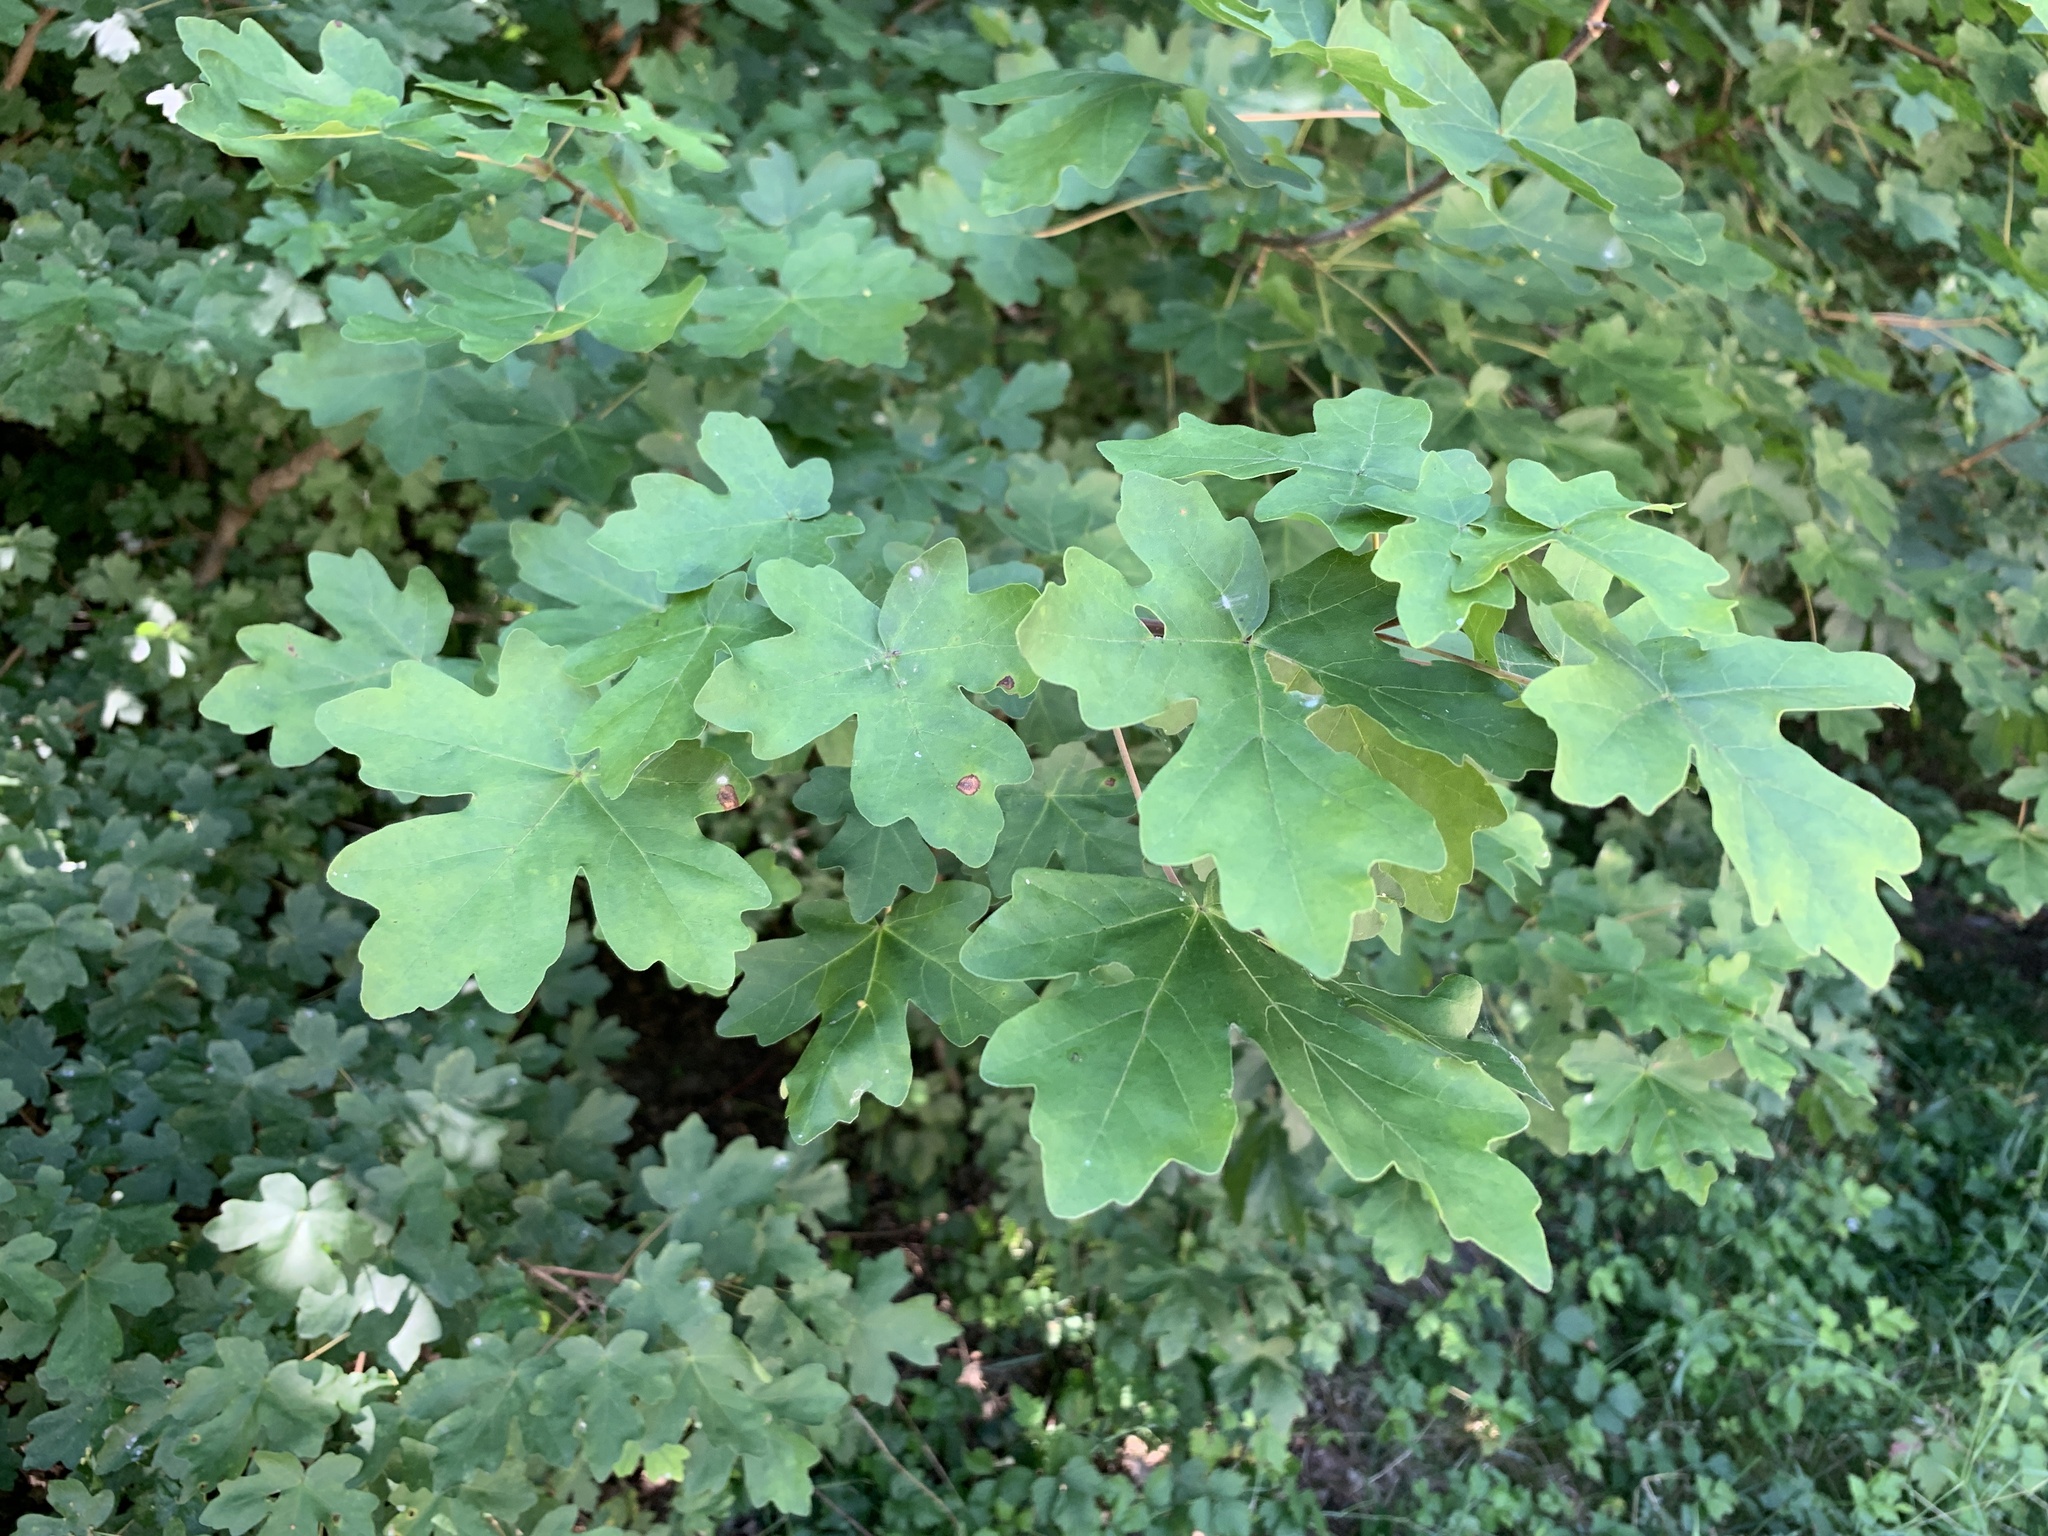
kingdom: Plantae
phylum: Tracheophyta
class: Magnoliopsida
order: Sapindales
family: Sapindaceae
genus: Acer
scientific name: Acer campestre
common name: Field maple
